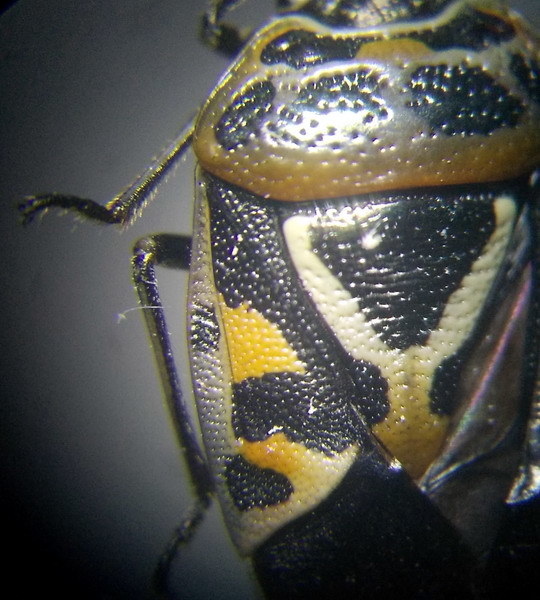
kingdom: Animalia
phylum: Arthropoda
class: Insecta
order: Hemiptera
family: Pentatomidae
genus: Eurydema
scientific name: Eurydema ornata
